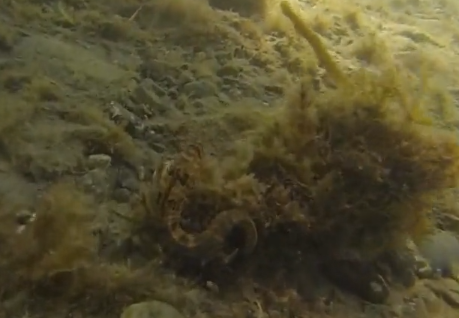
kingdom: Animalia
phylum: Chordata
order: Syngnathiformes
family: Syngnathidae
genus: Hippocampus
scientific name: Hippocampus abdominalis
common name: Big-belly seahorse
